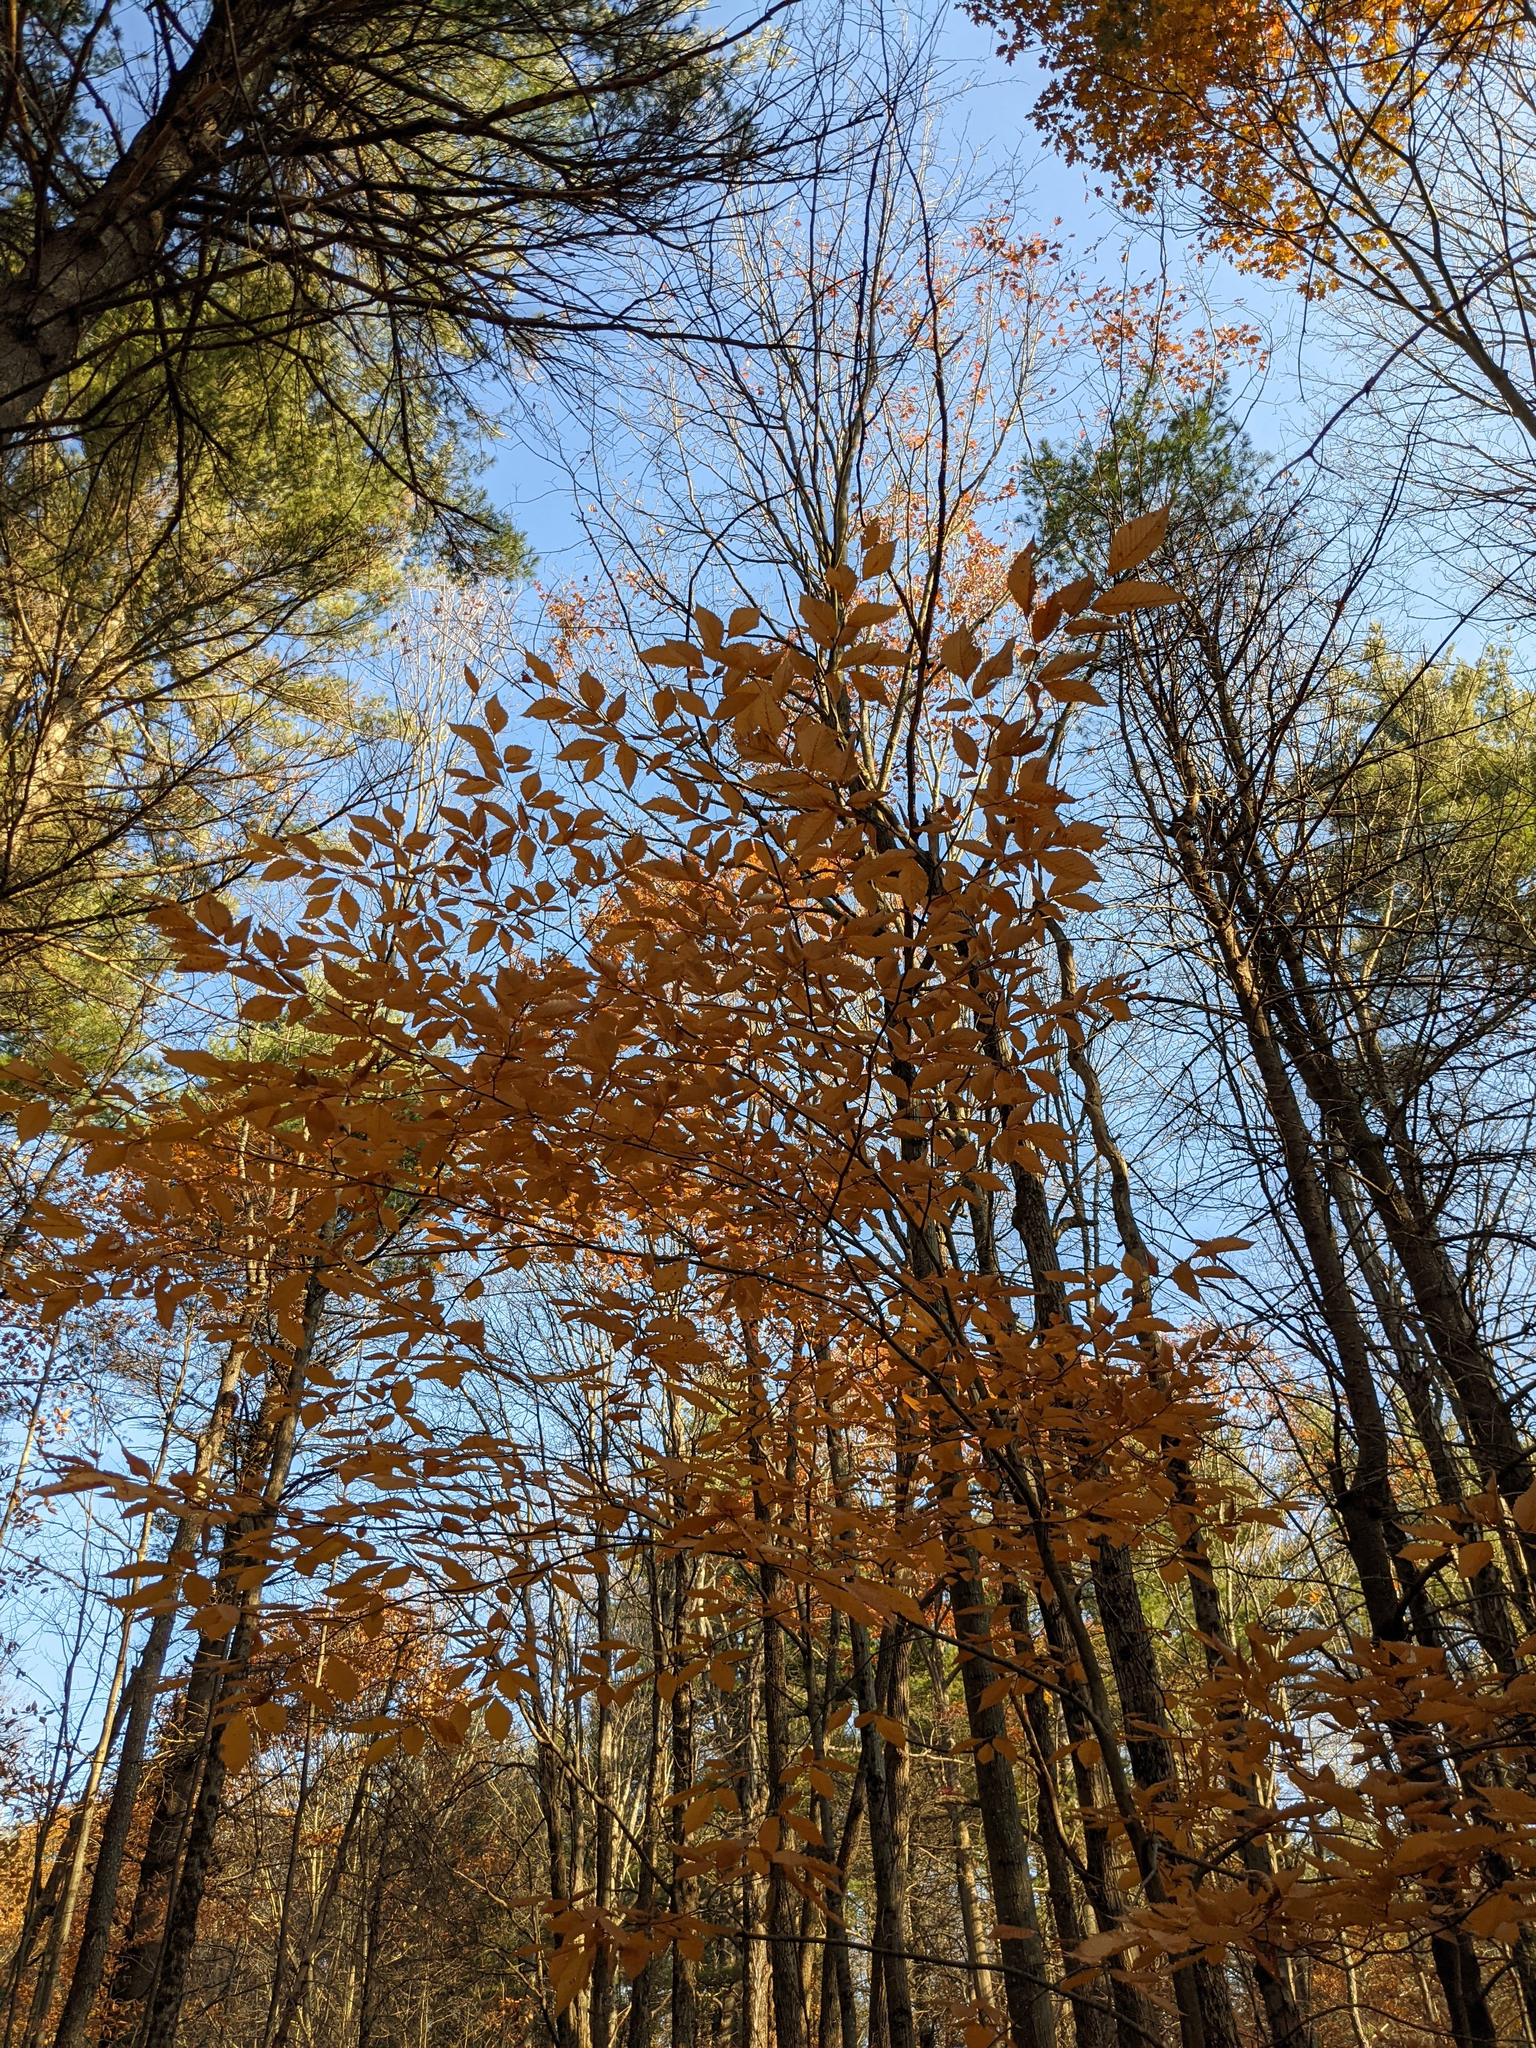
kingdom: Plantae
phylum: Tracheophyta
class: Magnoliopsida
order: Fagales
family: Fagaceae
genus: Fagus
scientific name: Fagus grandifolia
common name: American beech
